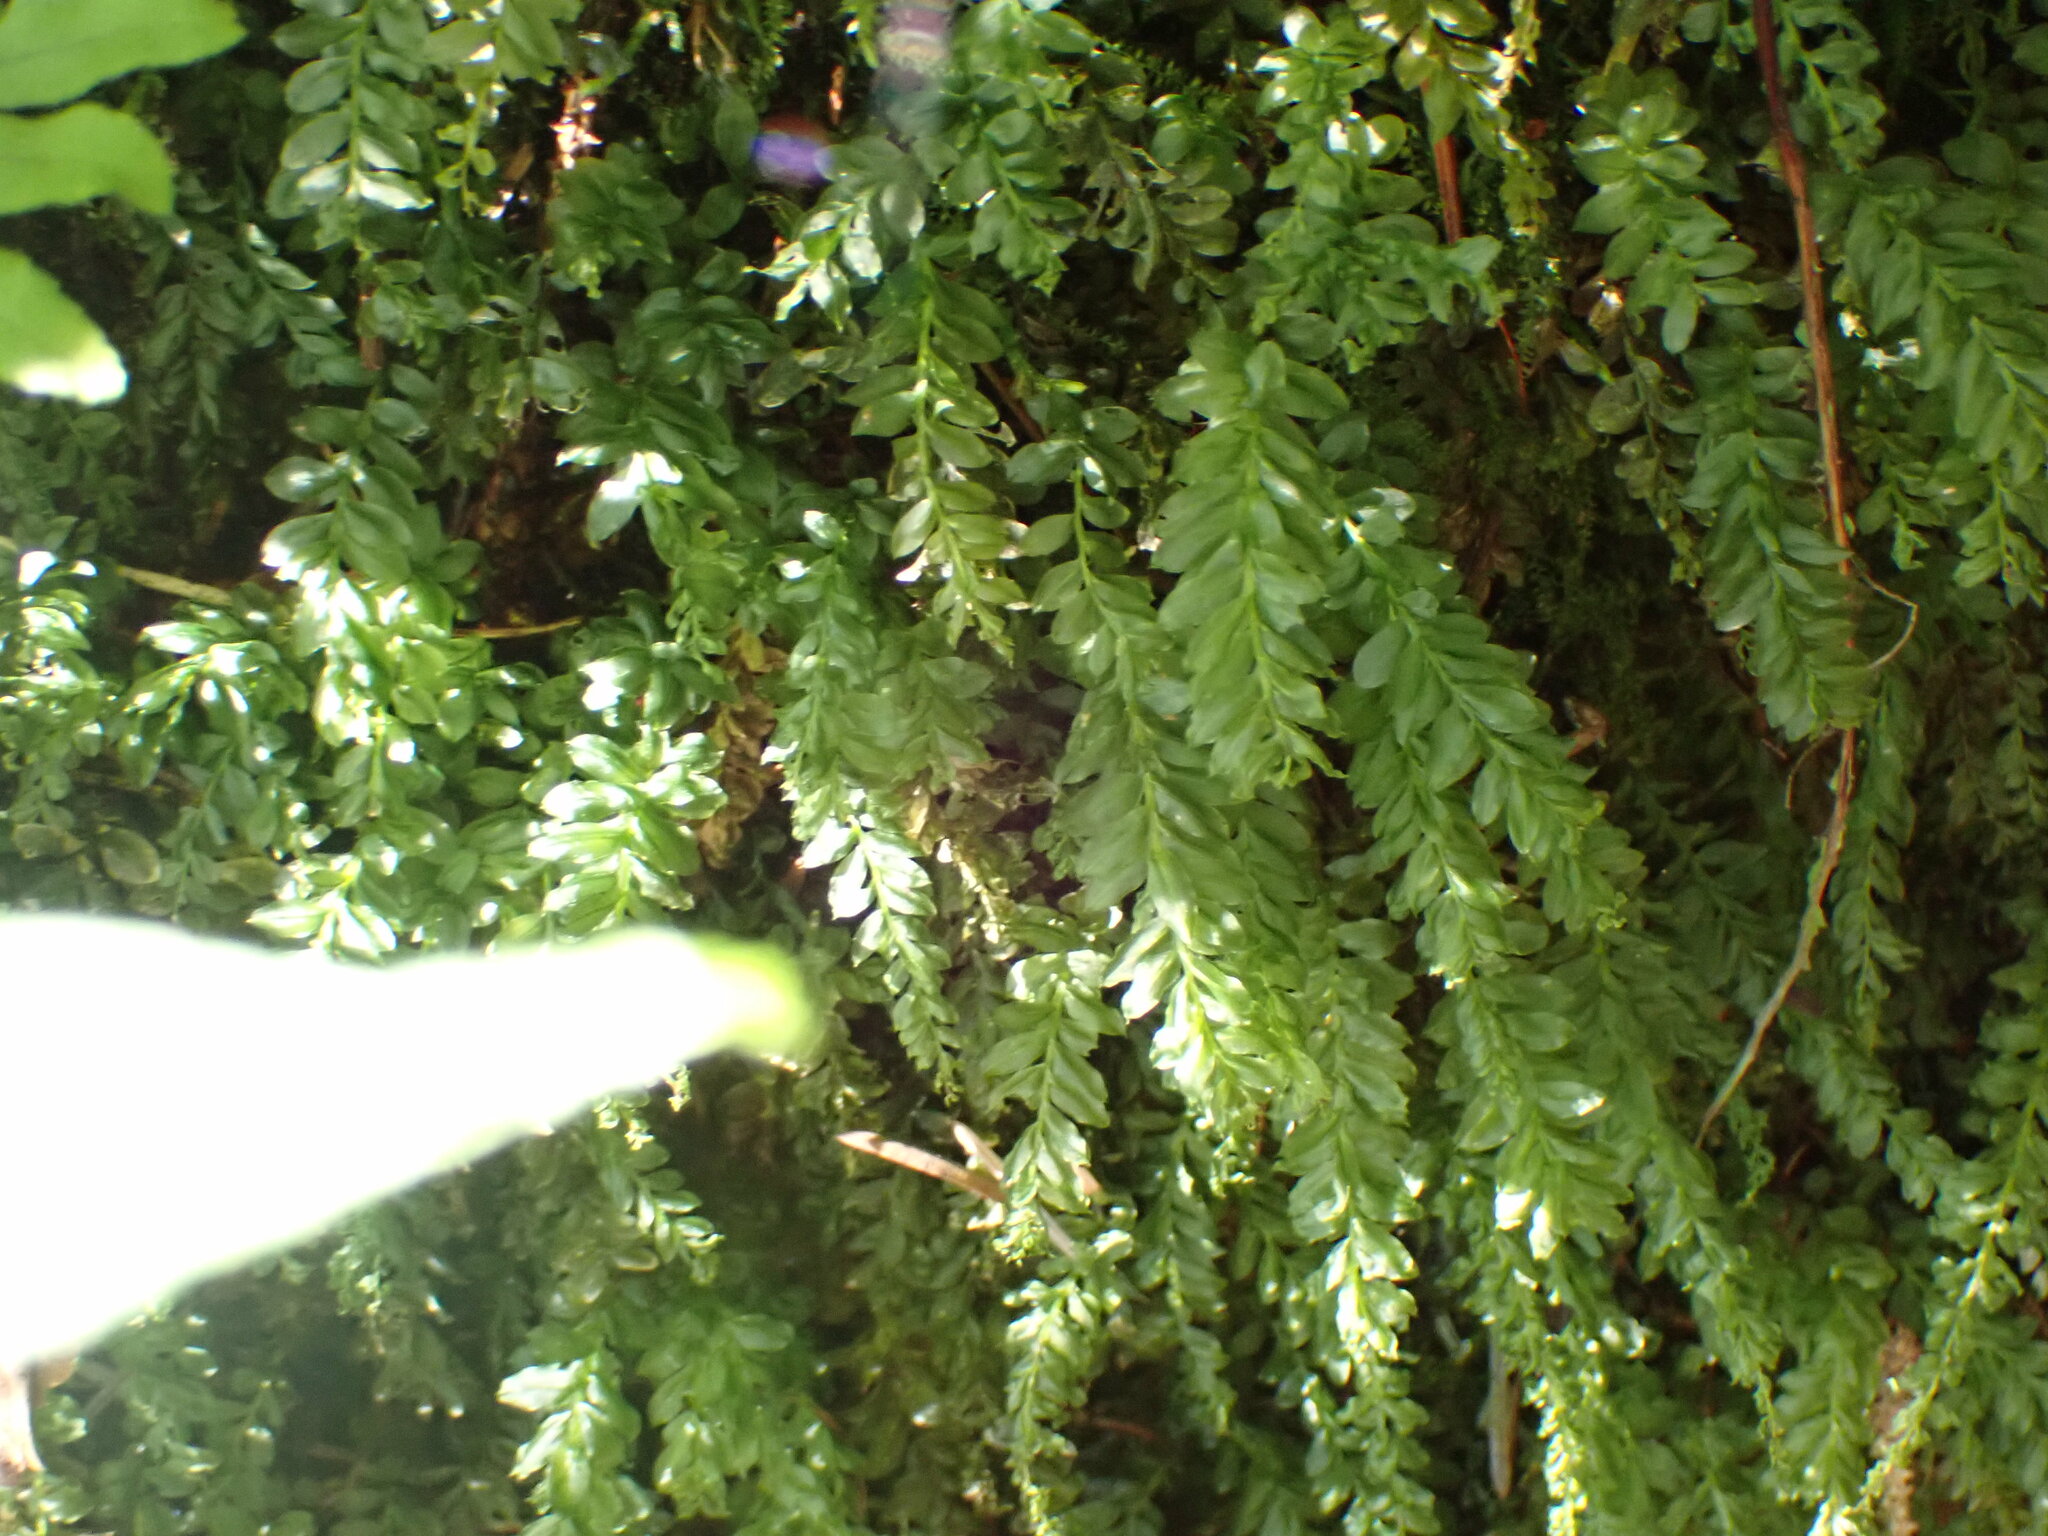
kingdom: Plantae
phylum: Bryophyta
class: Bryopsida
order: Bryales
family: Mniaceae
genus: Plagiomnium
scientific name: Plagiomnium insigne
